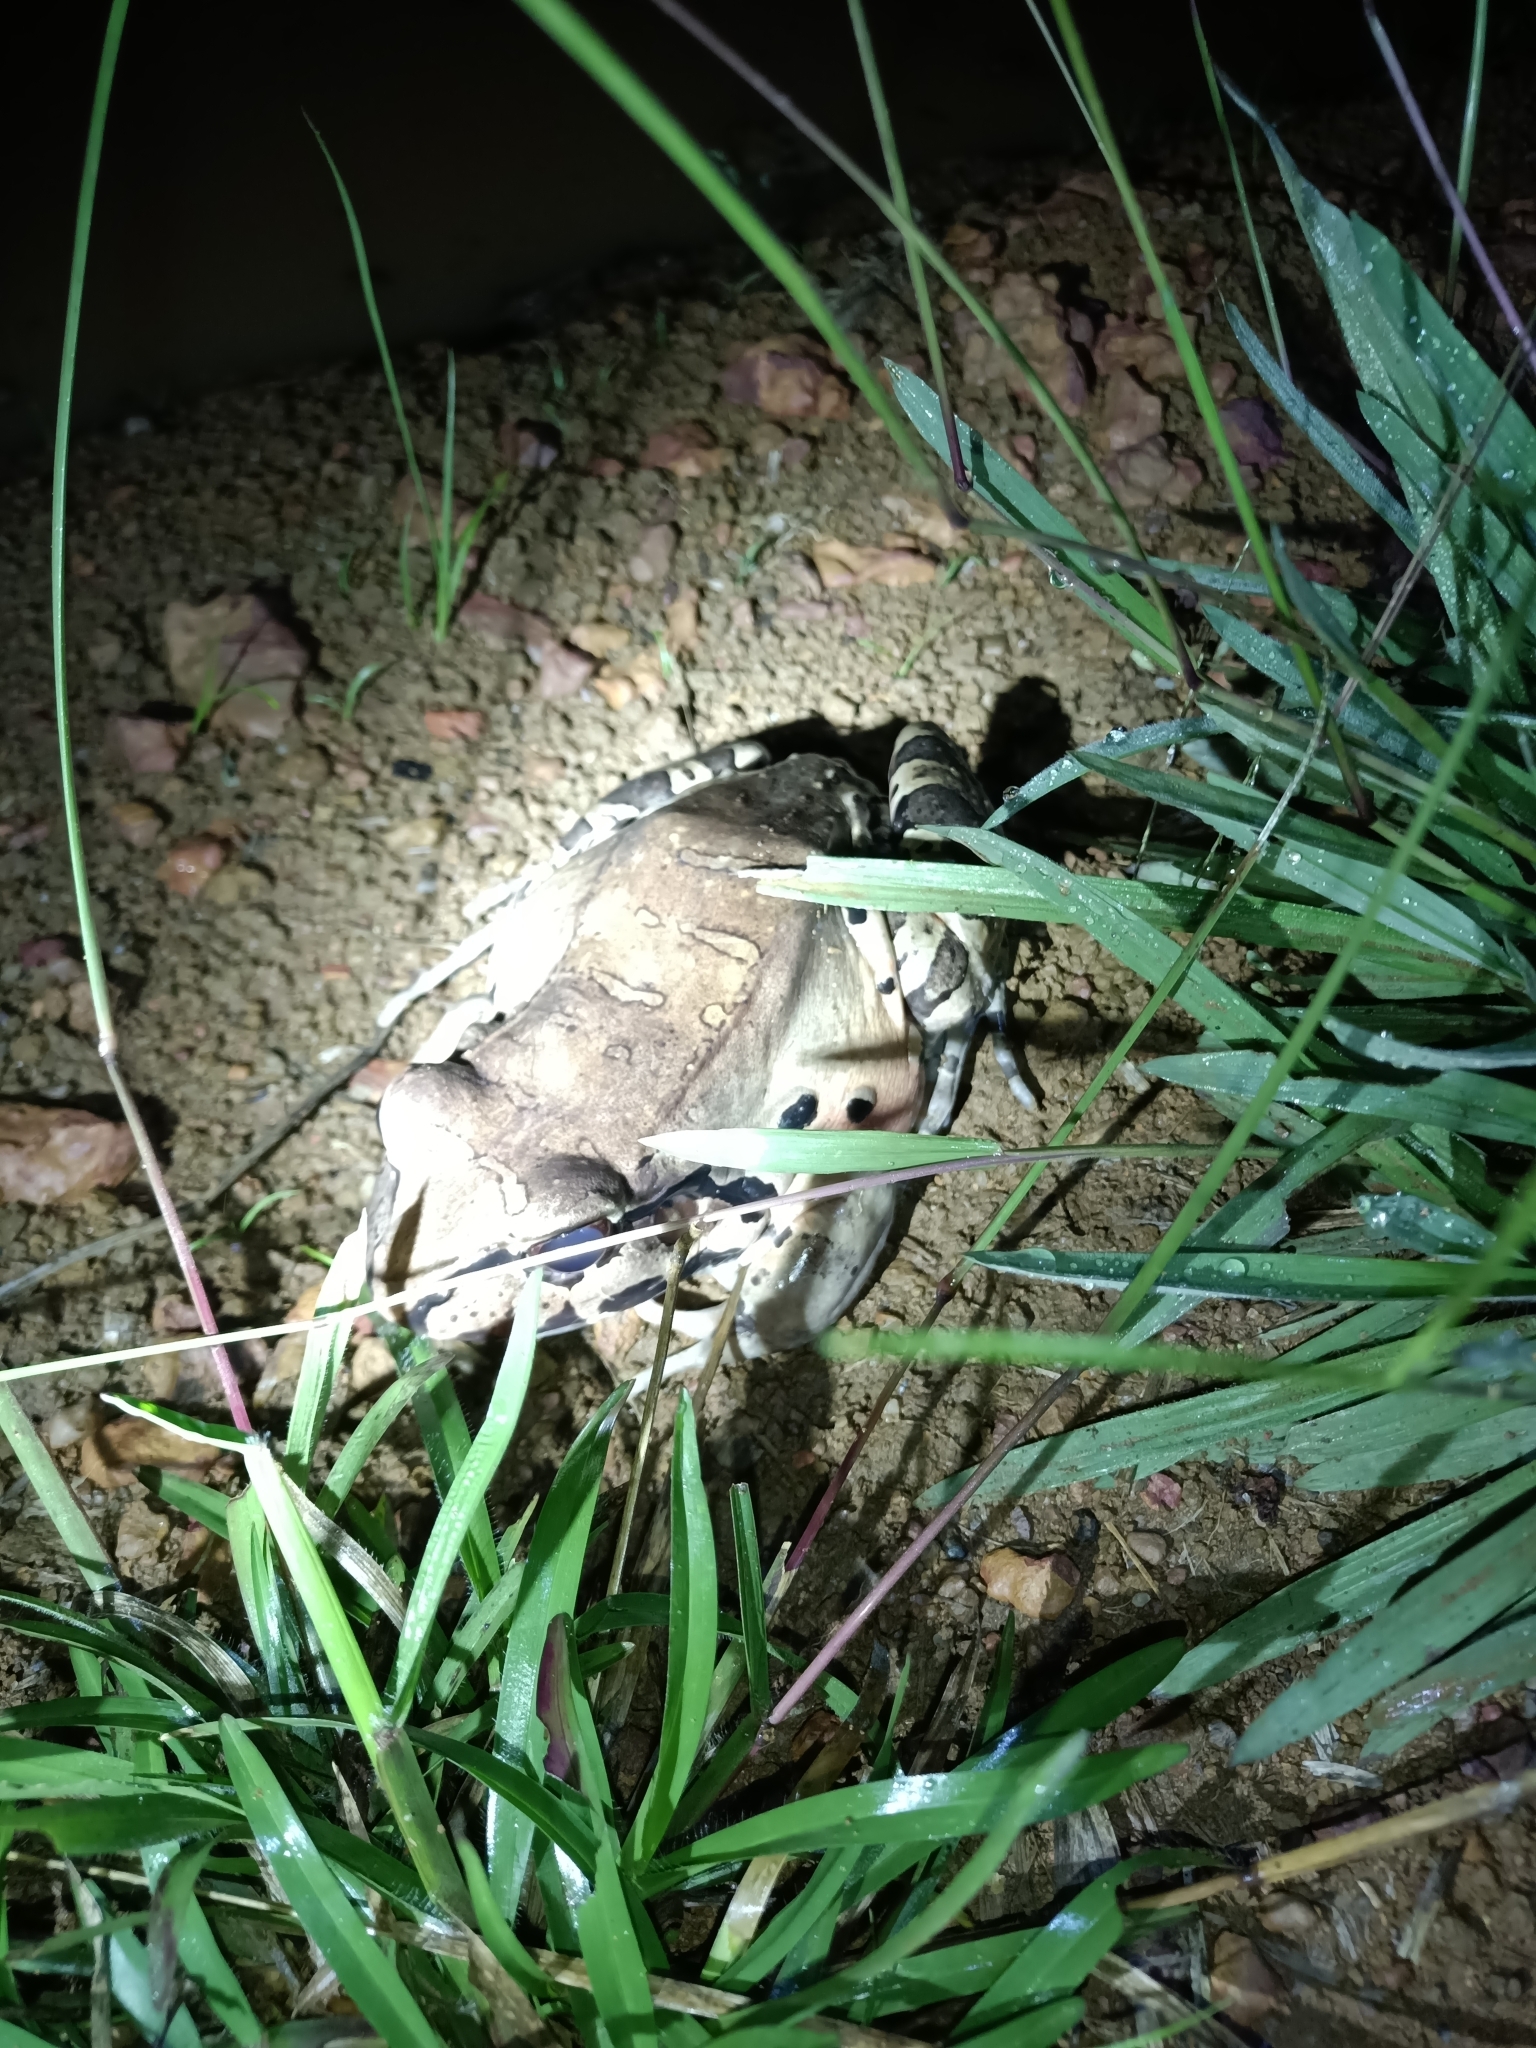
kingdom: Animalia
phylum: Chordata
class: Amphibia
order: Anura
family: Leptodactylidae
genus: Leptodactylus
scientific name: Leptodactylus knudseni
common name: Knudsen's frog
